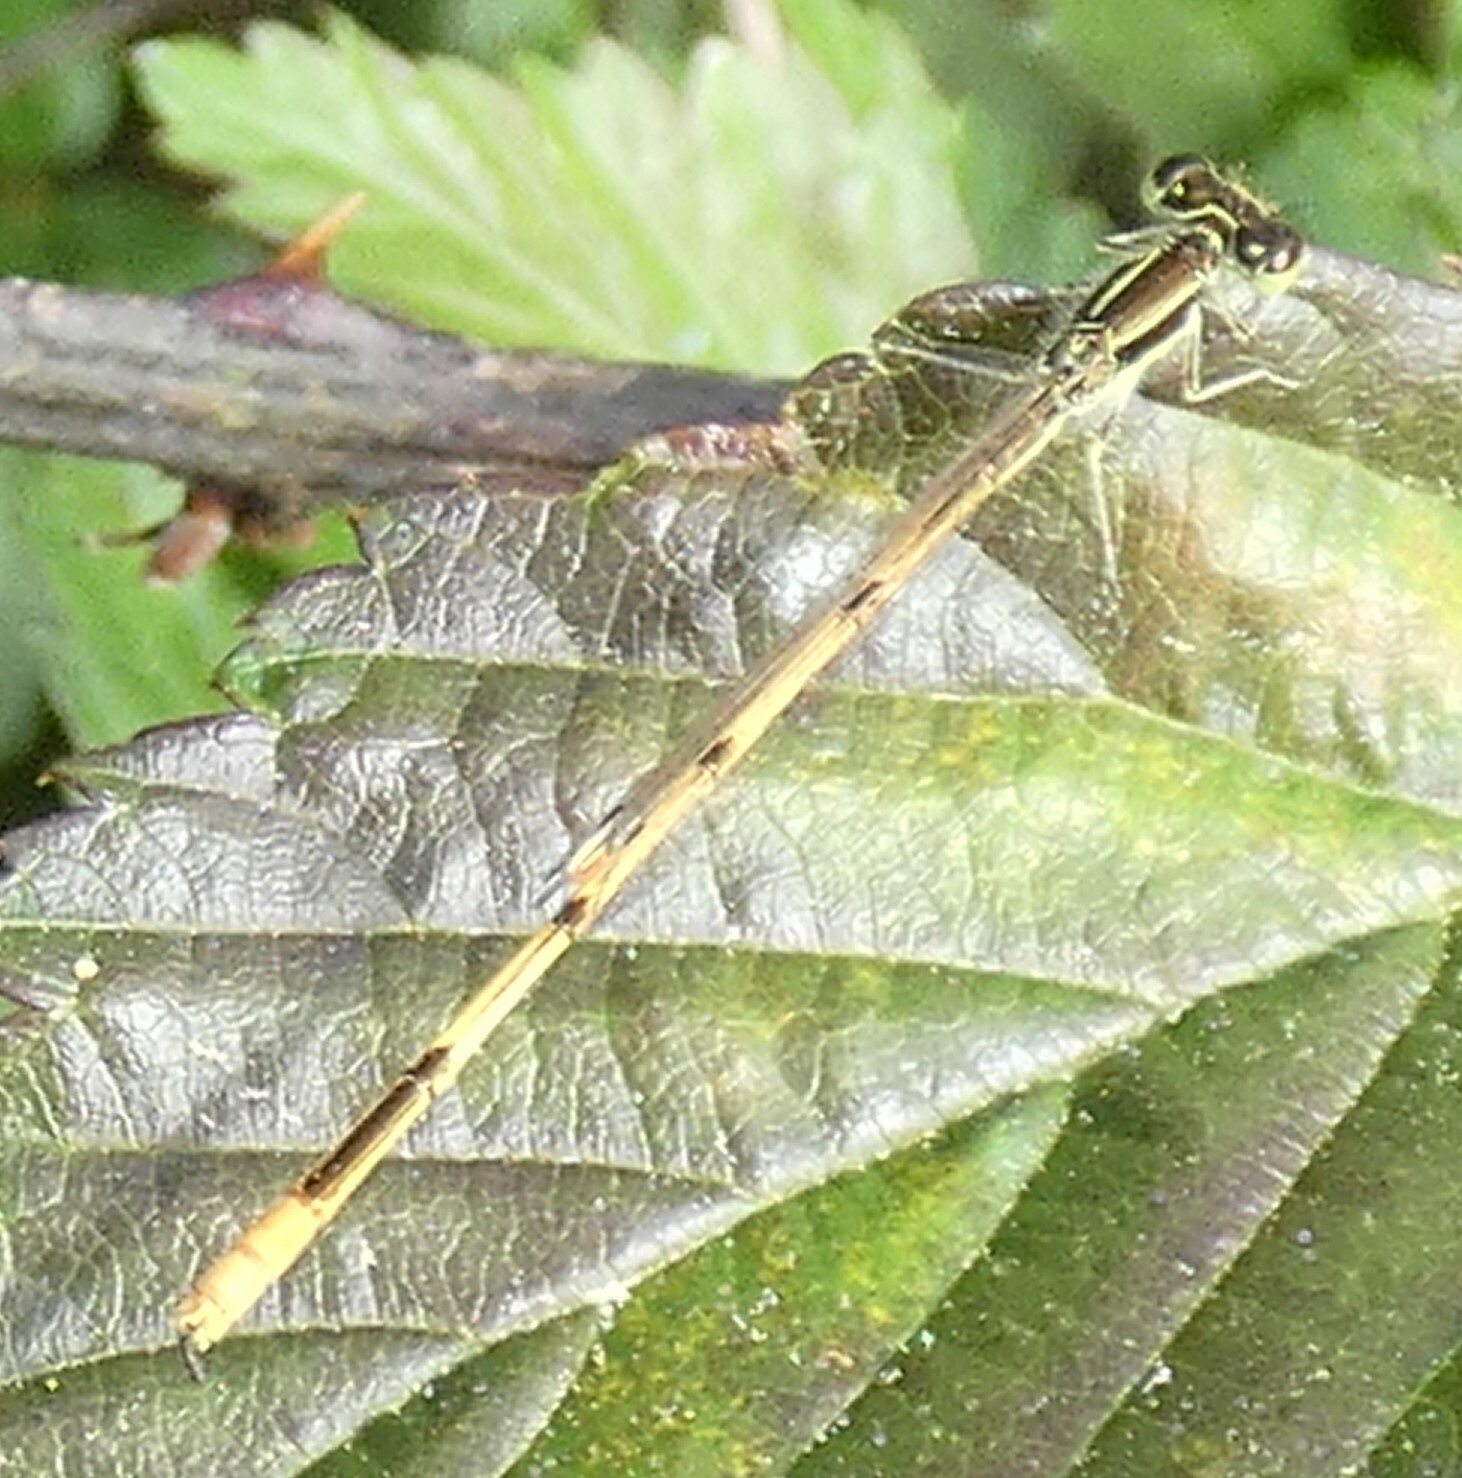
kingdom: Animalia
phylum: Arthropoda
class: Insecta
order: Odonata
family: Coenagrionidae
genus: Ischnura
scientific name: Ischnura hastata
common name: Citrine forktail
